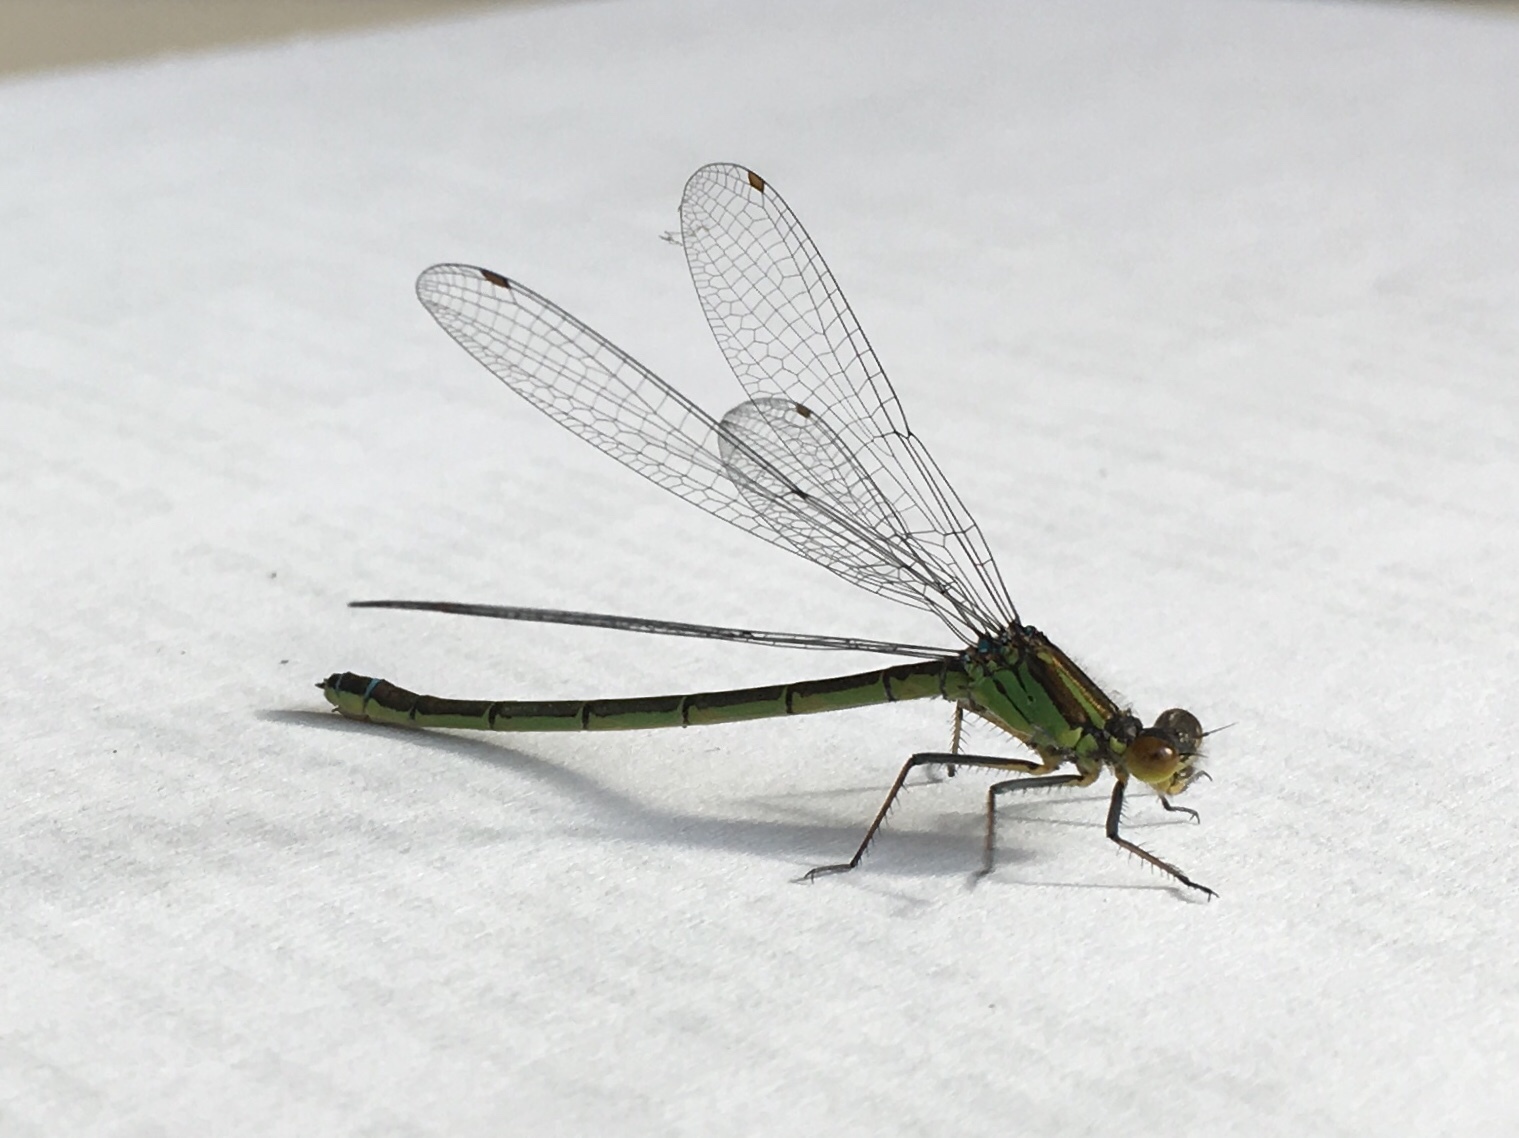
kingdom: Animalia
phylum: Arthropoda
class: Insecta
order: Odonata
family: Coenagrionidae
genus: Erythromma
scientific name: Erythromma najas
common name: Red-eyed damselfly
